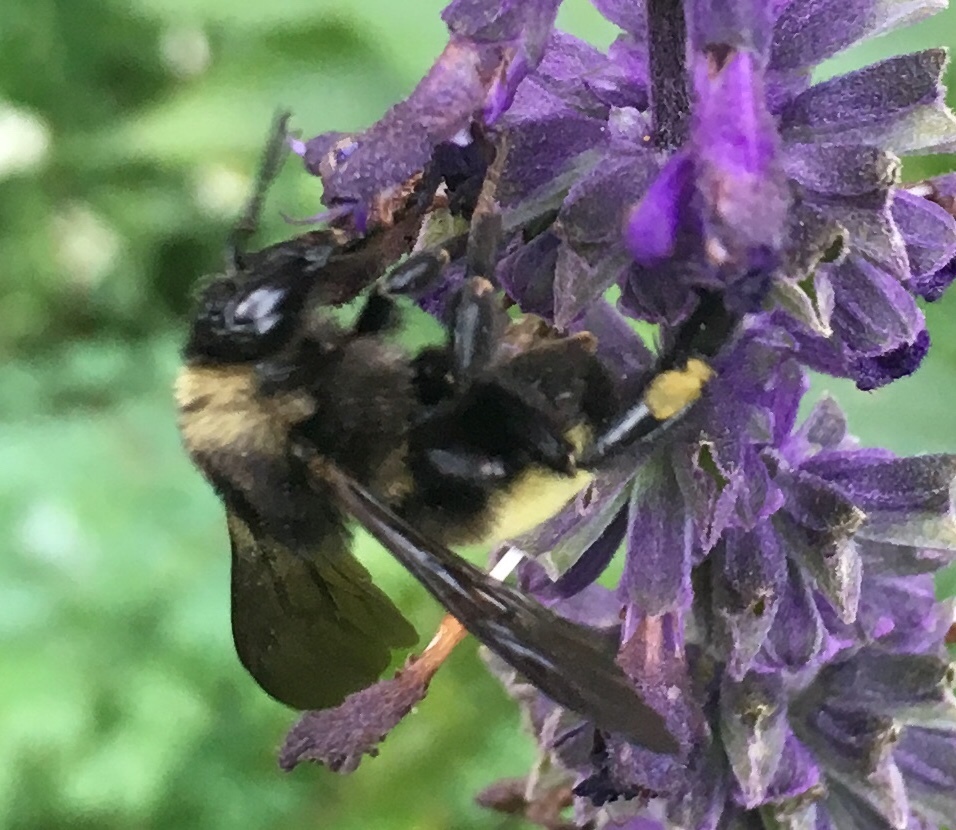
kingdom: Animalia
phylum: Arthropoda
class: Insecta
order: Hymenoptera
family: Apidae
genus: Bombus
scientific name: Bombus pensylvanicus
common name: Bumble bee
